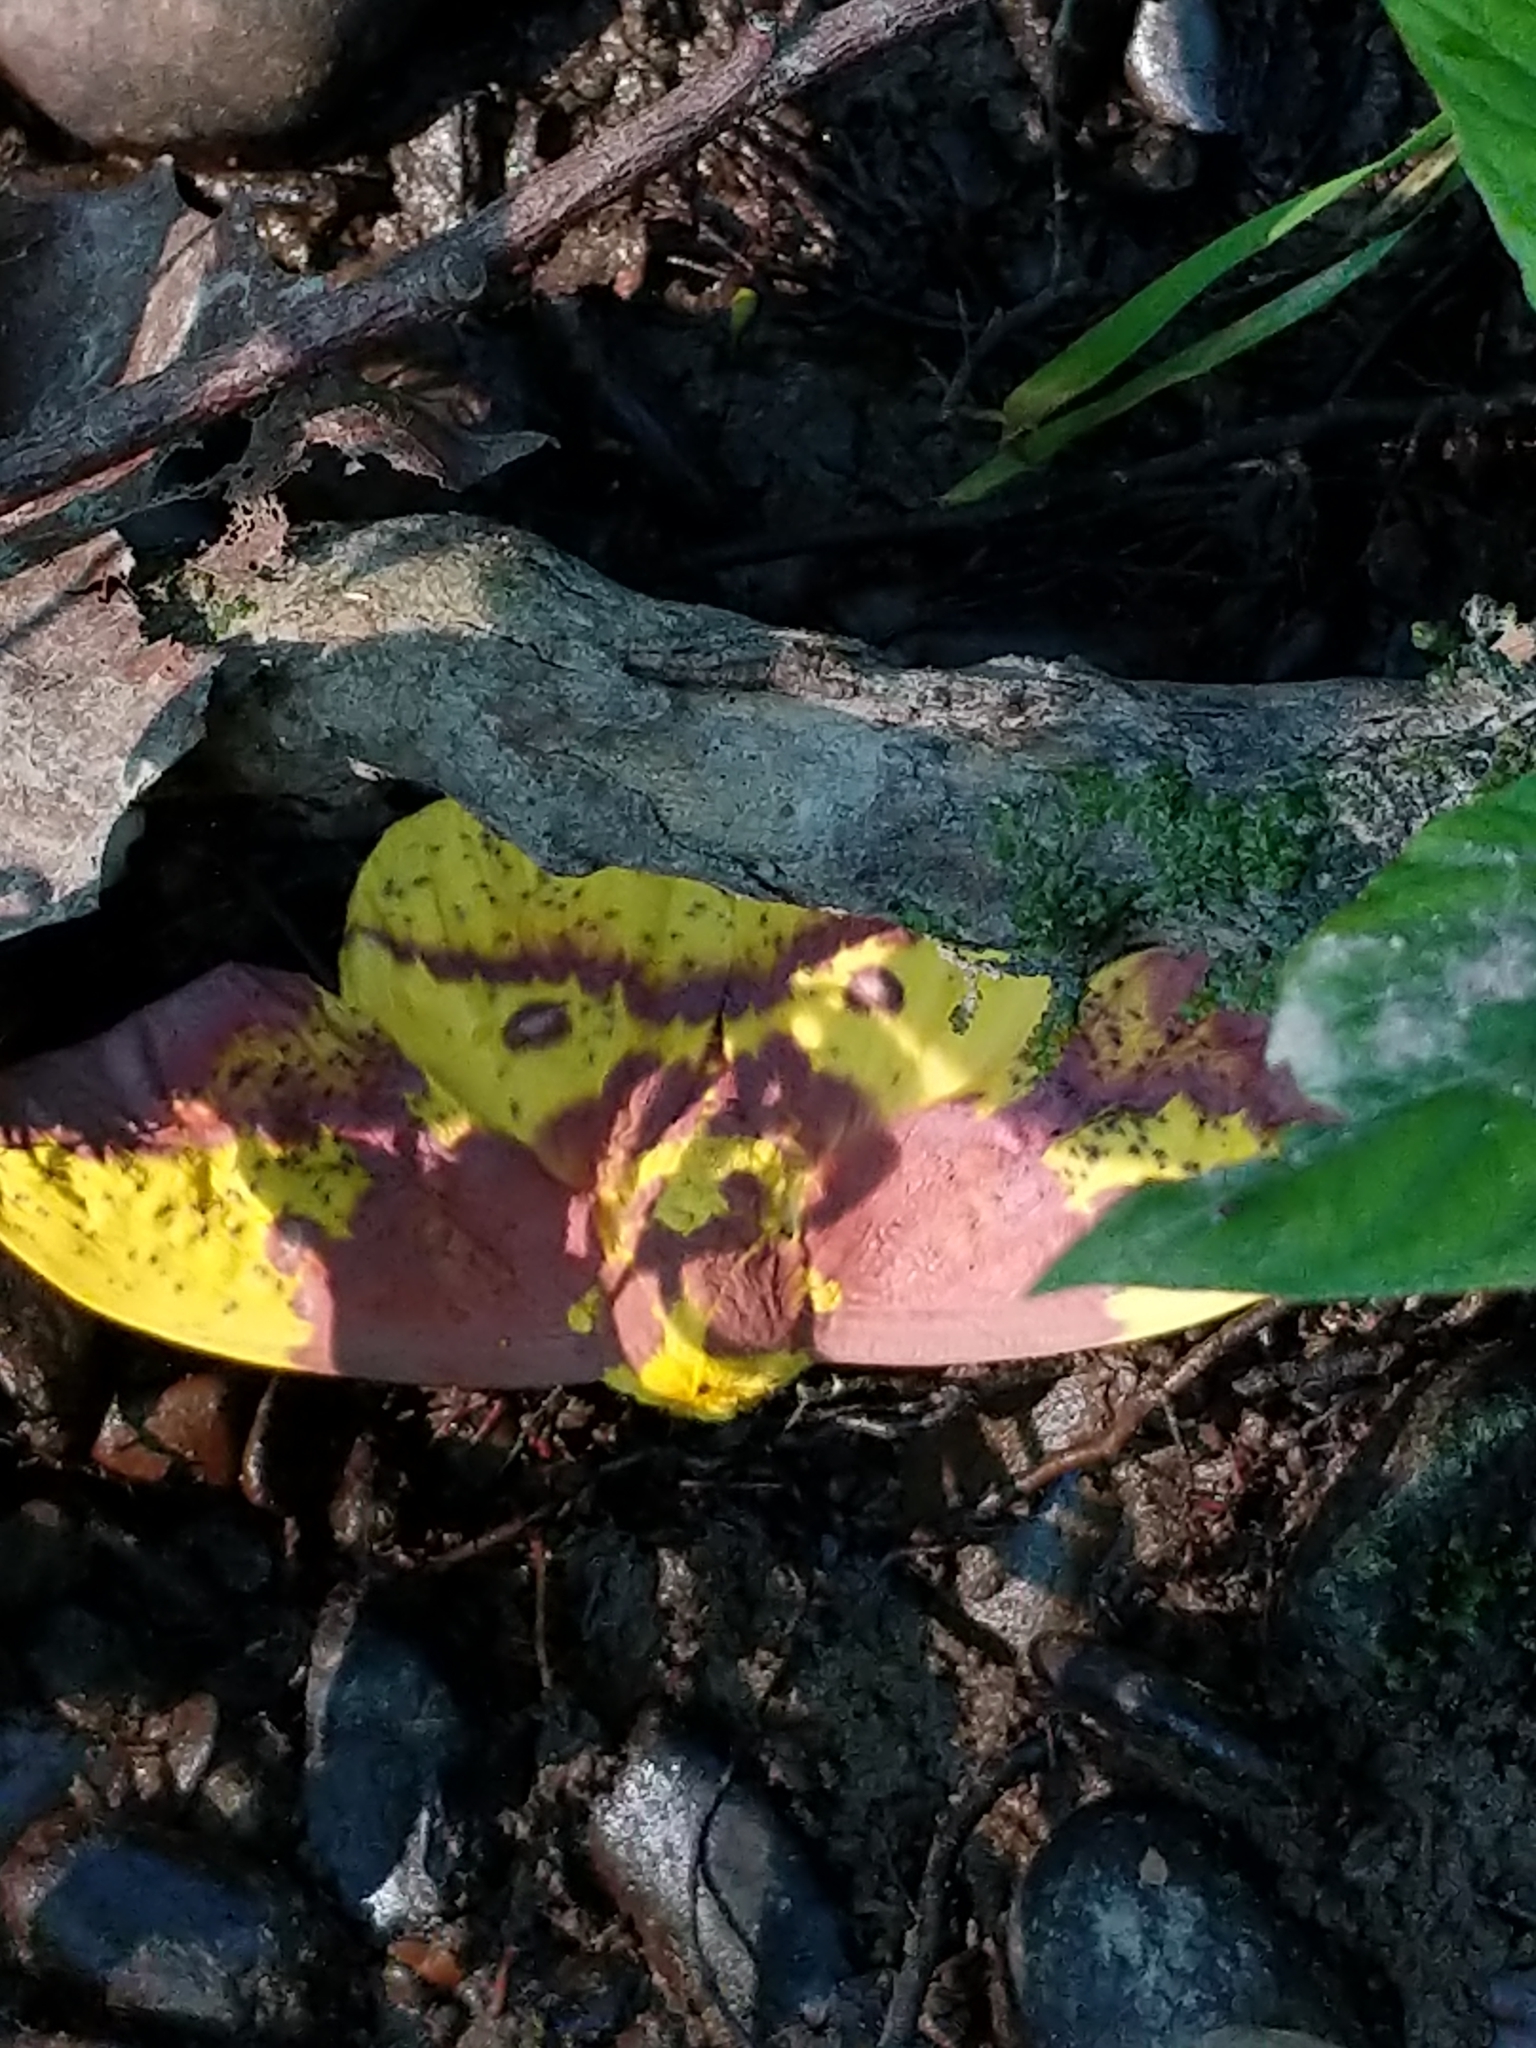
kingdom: Animalia
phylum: Arthropoda
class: Insecta
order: Lepidoptera
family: Saturniidae
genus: Eacles
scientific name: Eacles imperialis
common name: Imperial moth
